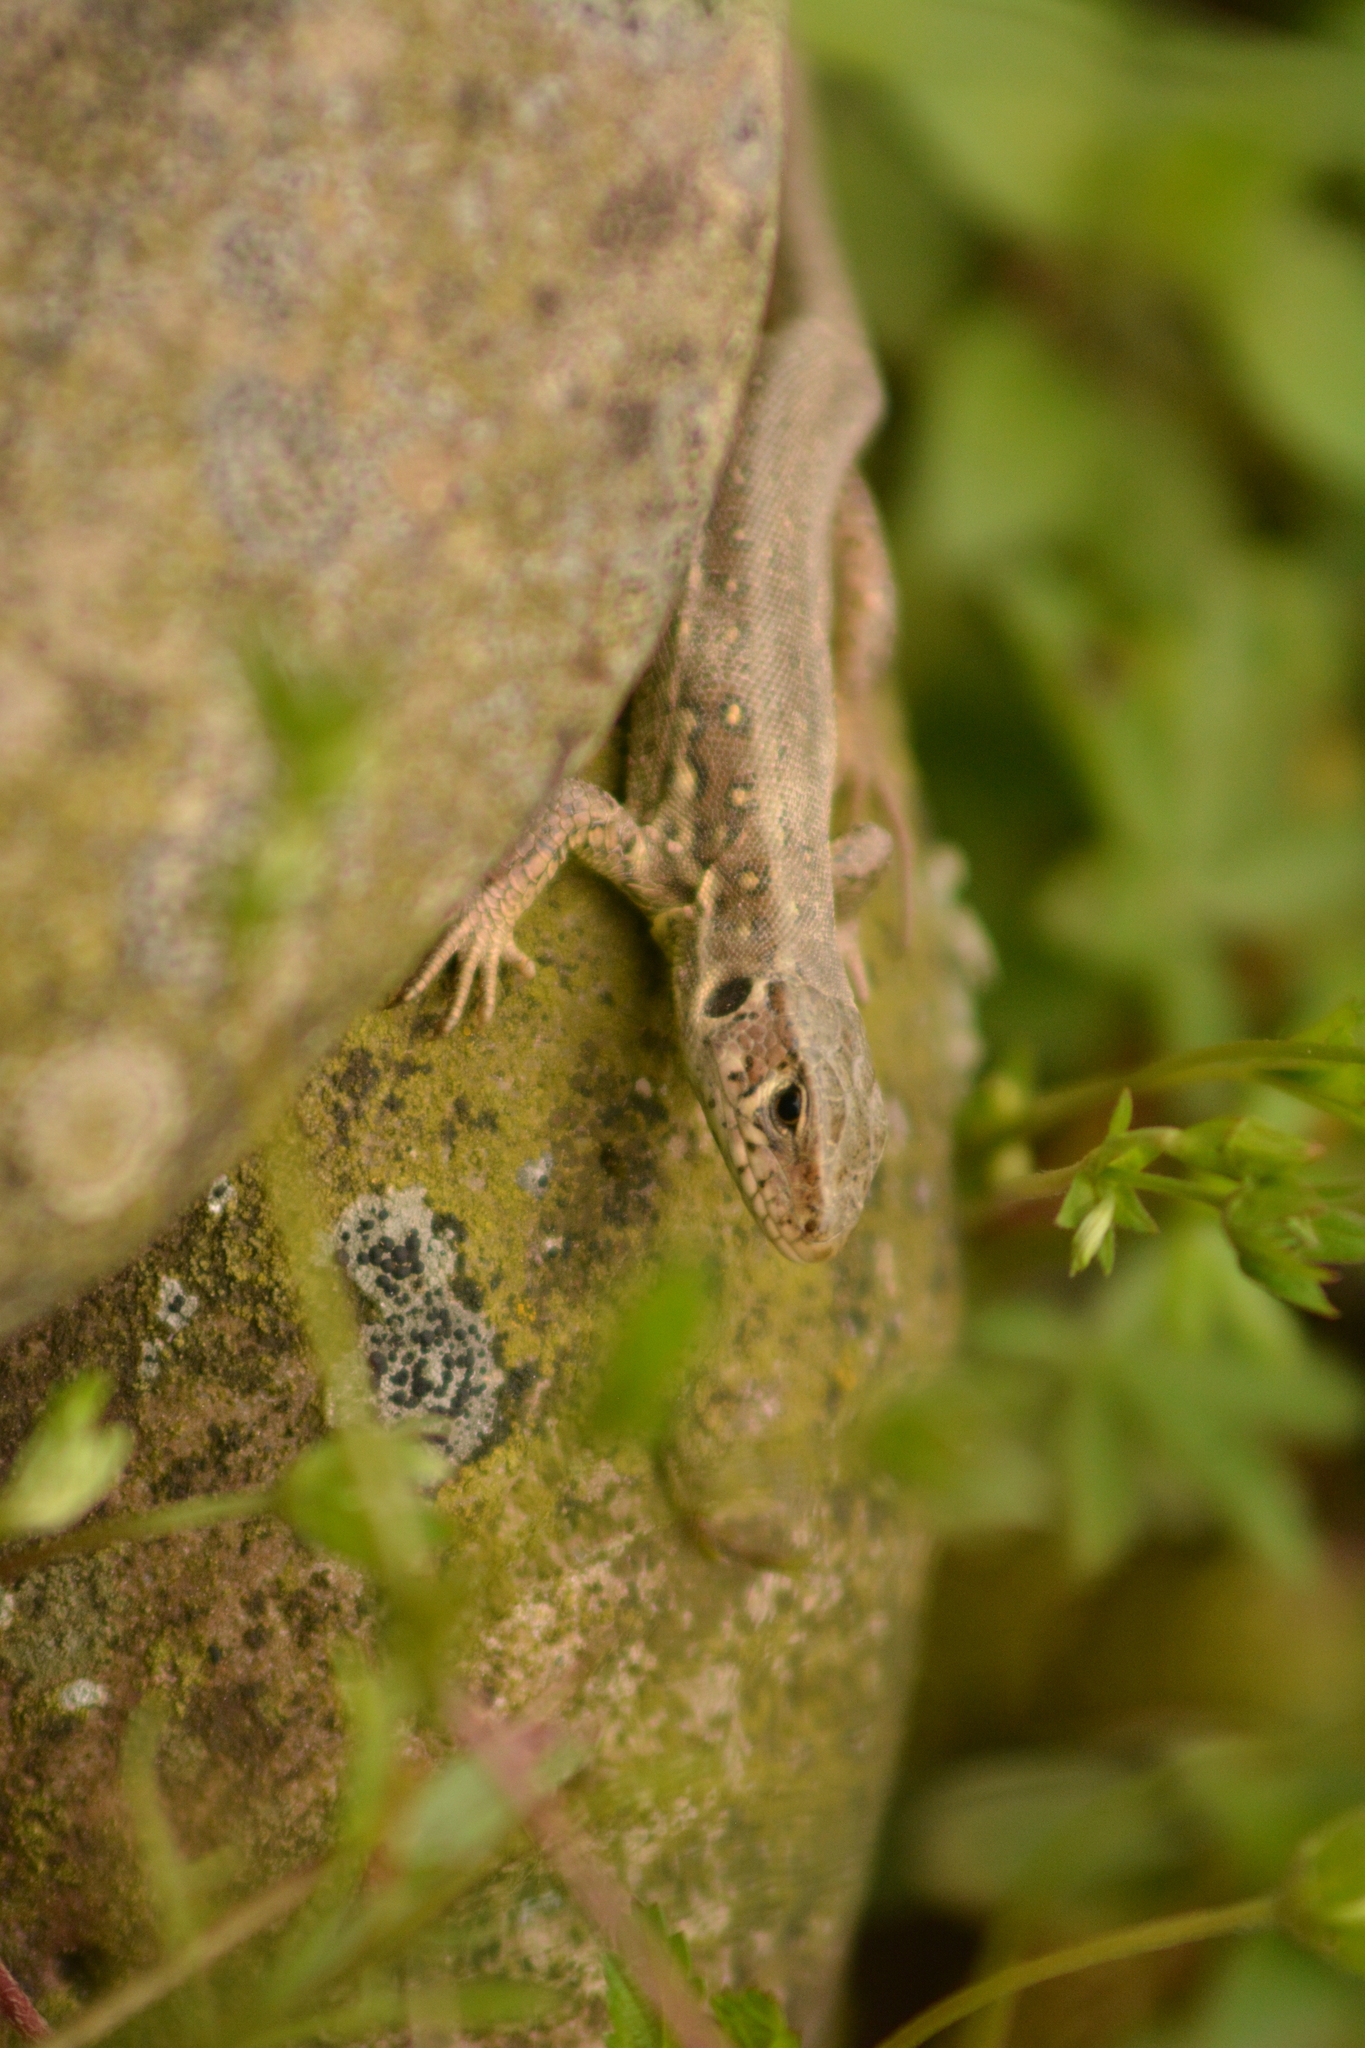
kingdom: Animalia
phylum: Chordata
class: Squamata
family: Lacertidae
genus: Lacerta
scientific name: Lacerta agilis
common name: Sand lizard
